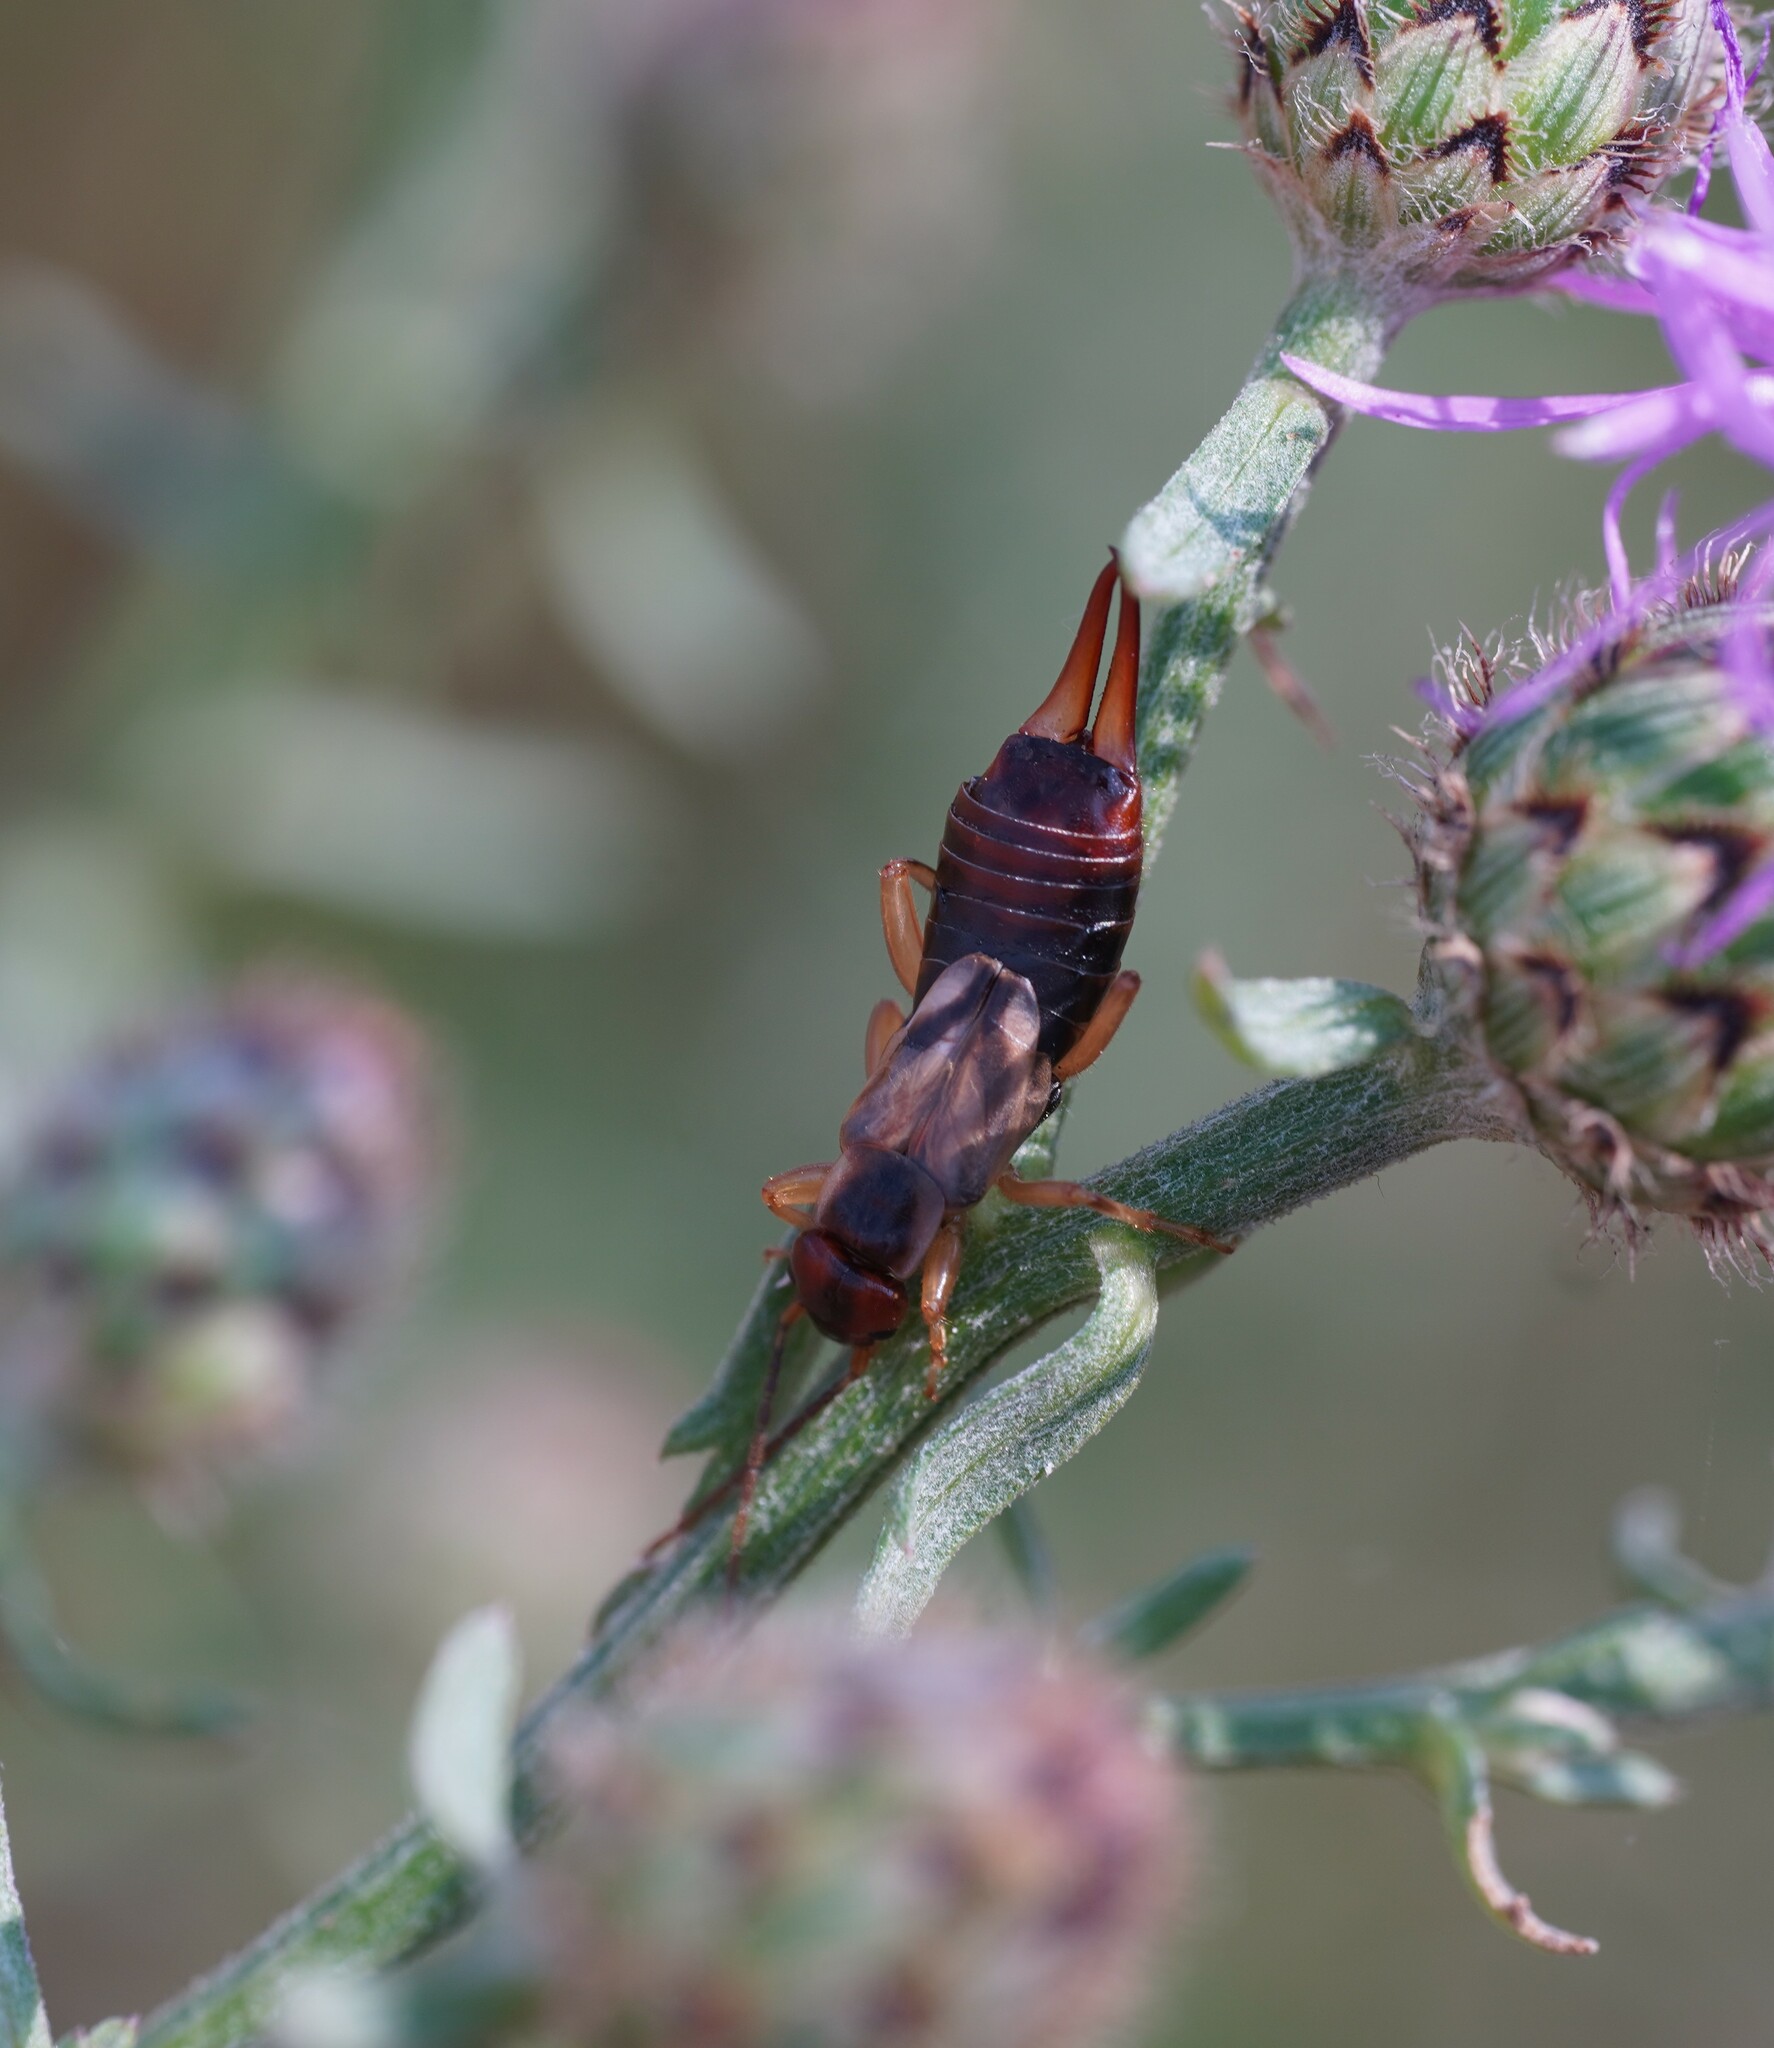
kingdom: Animalia
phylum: Arthropoda
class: Insecta
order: Dermaptera
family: Forficulidae
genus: Forficula
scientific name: Forficula
